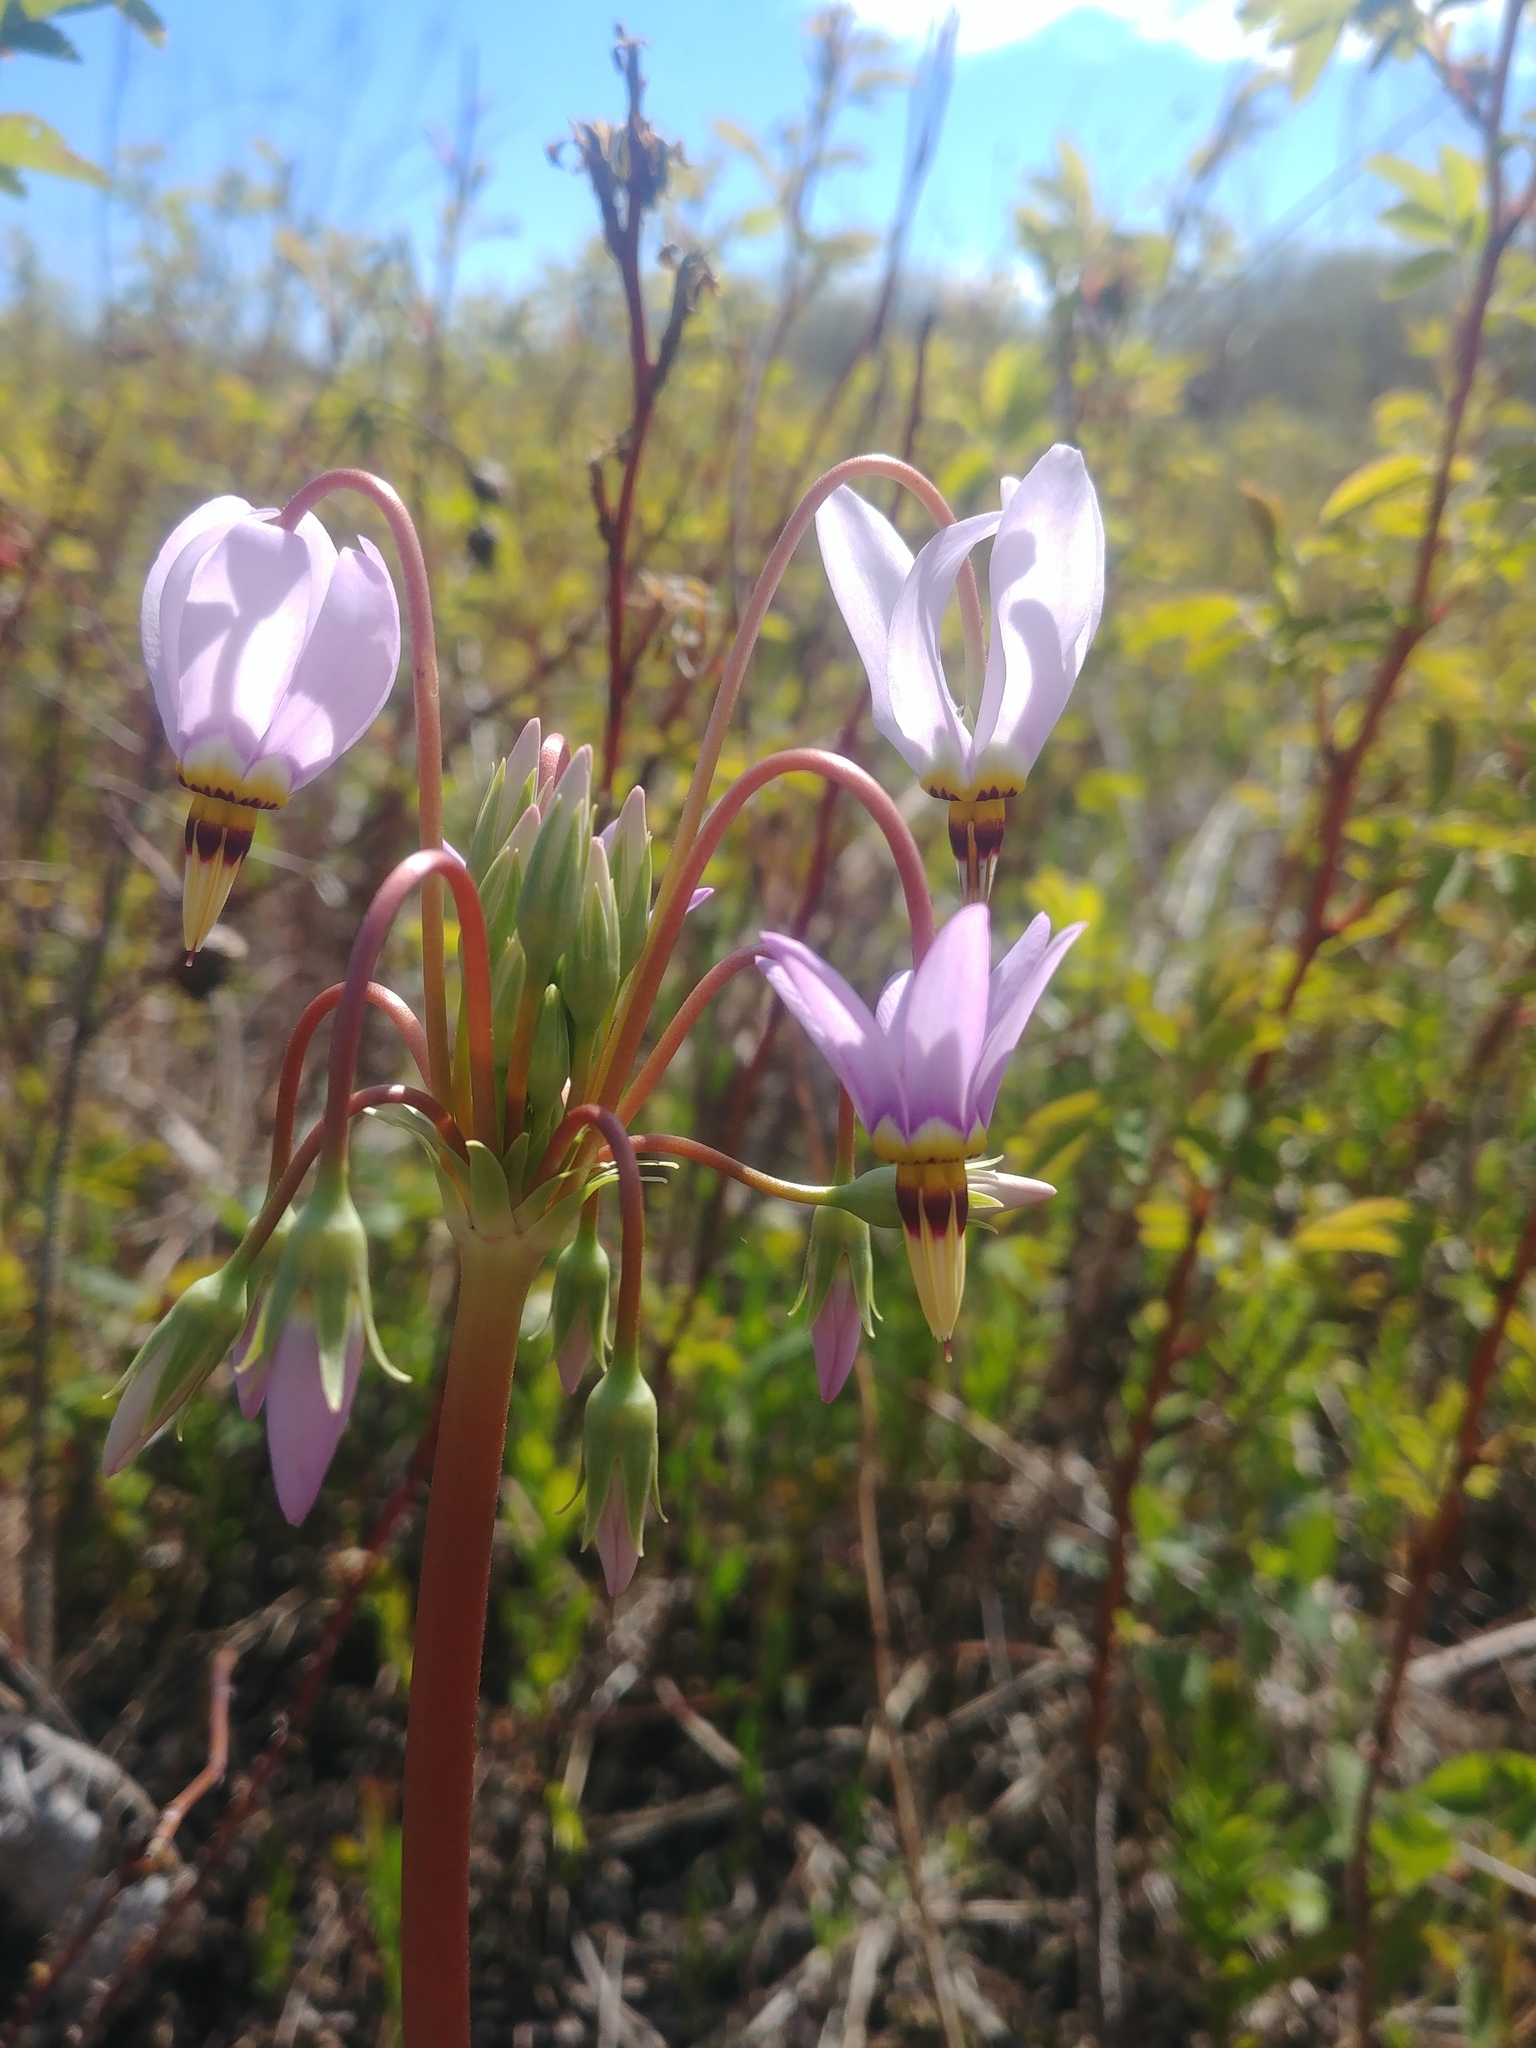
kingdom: Plantae
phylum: Tracheophyta
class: Magnoliopsida
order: Ericales
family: Primulaceae
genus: Dodecatheon
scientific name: Dodecatheon meadia
